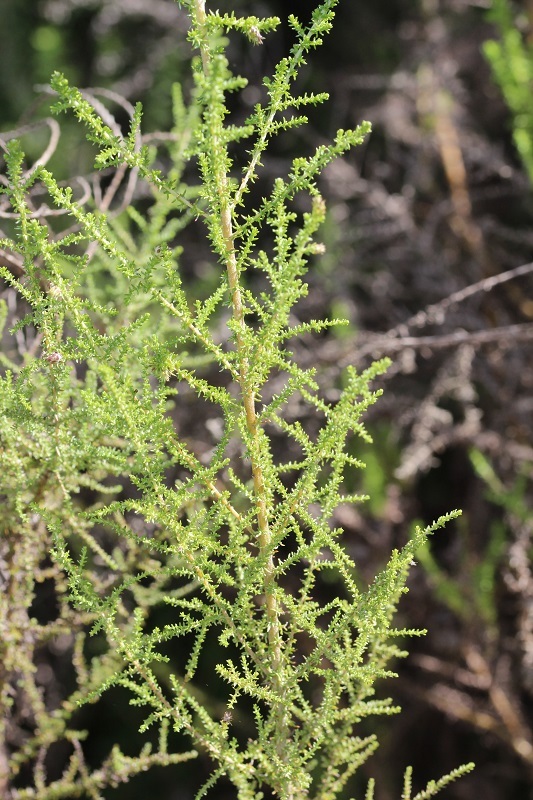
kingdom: Plantae
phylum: Tracheophyta
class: Magnoliopsida
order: Asterales
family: Asteraceae
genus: Seriphium
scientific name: Seriphium plumosum
